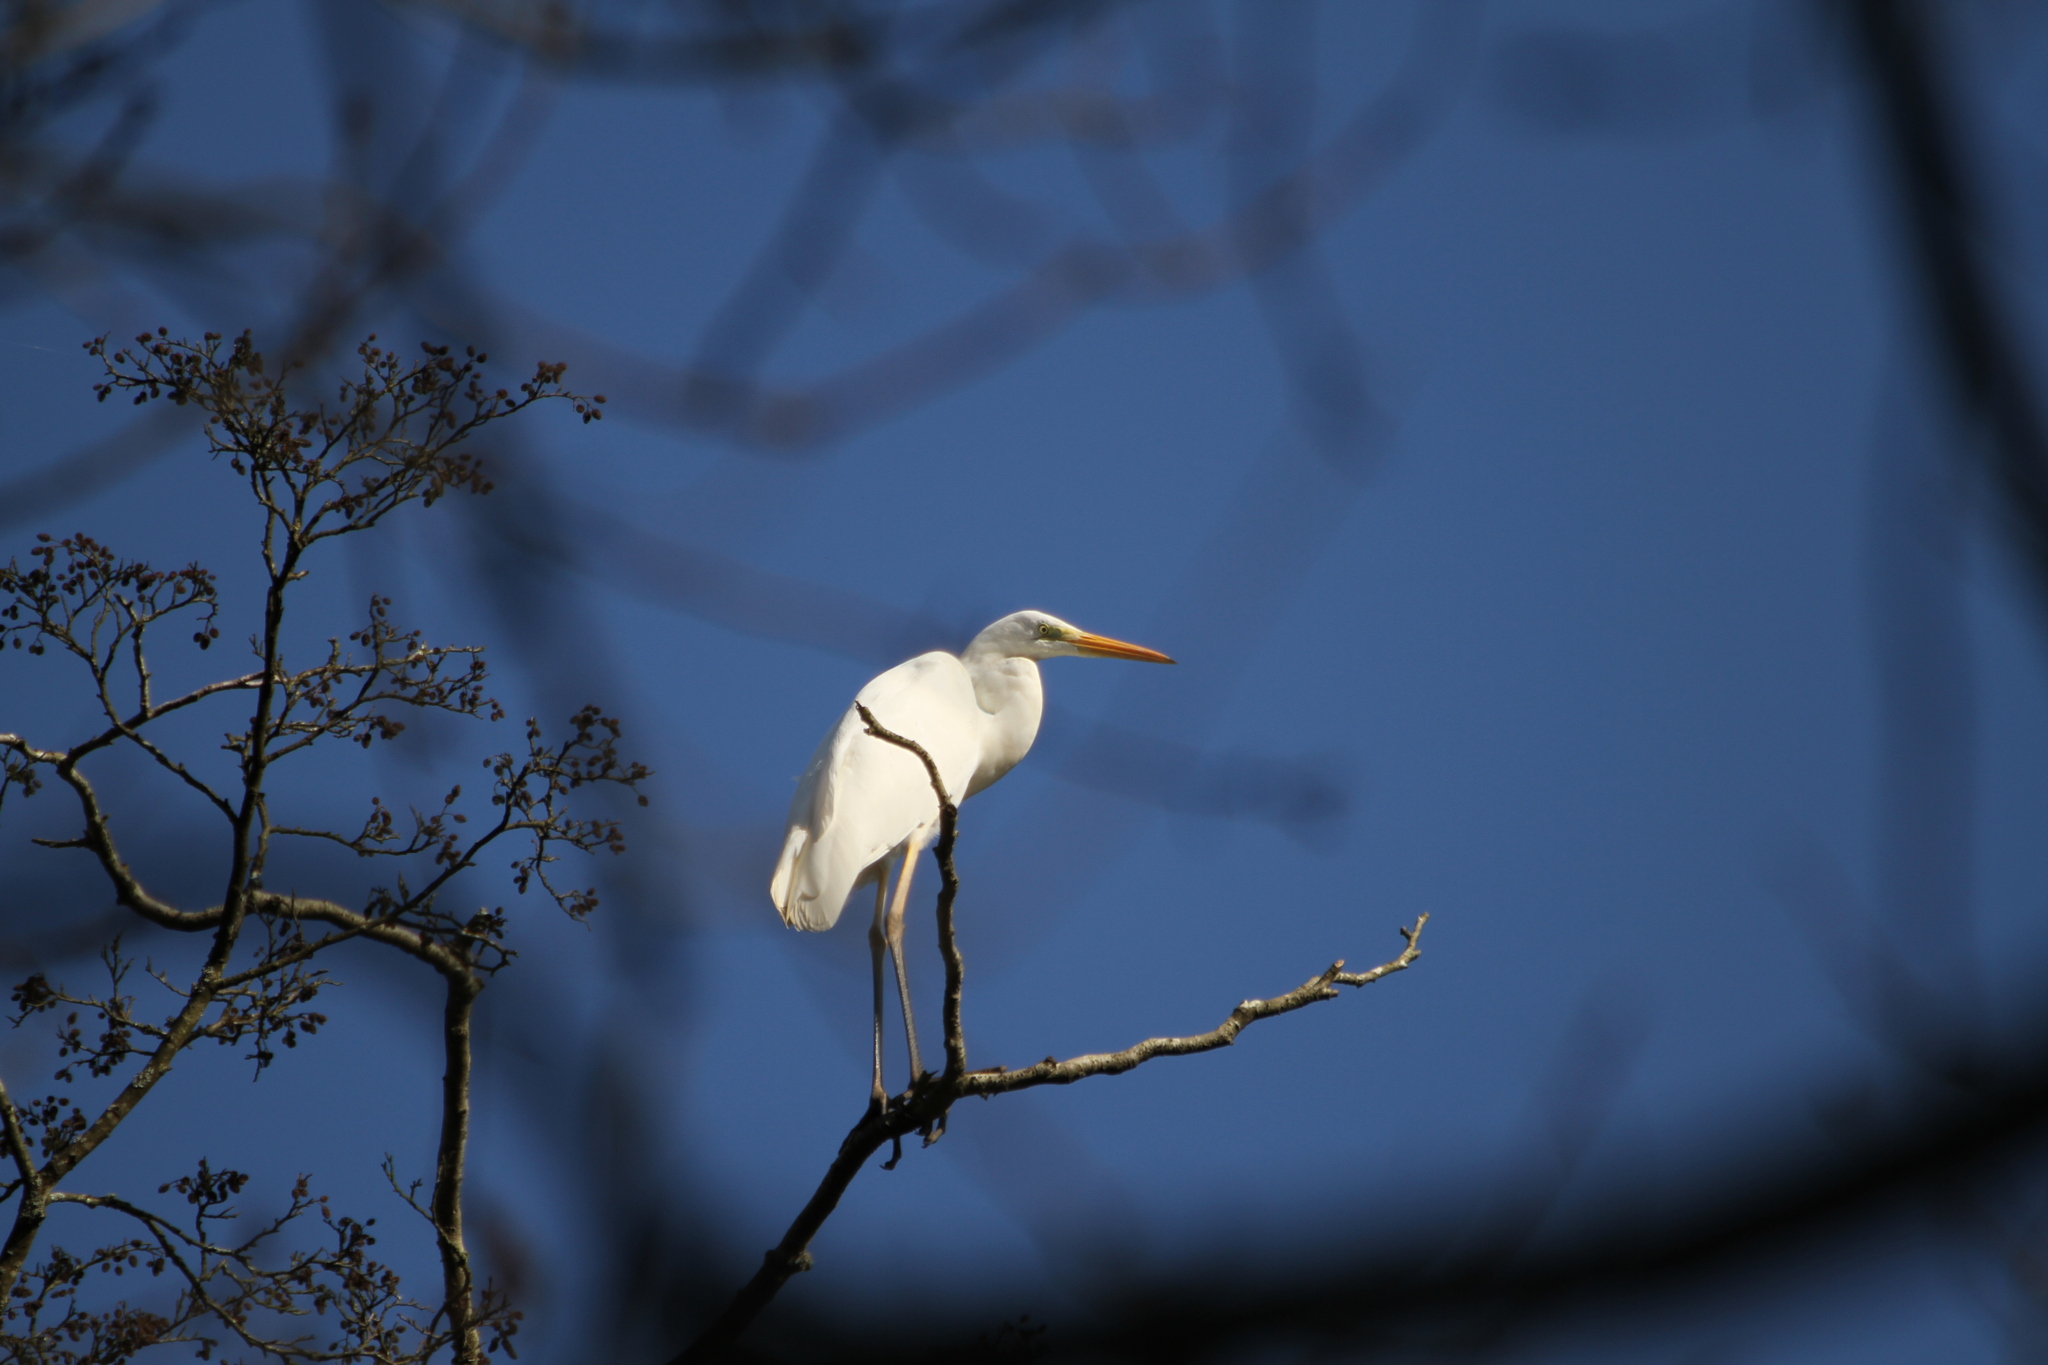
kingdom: Animalia
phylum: Chordata
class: Aves
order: Pelecaniformes
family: Ardeidae
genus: Ardea
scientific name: Ardea alba
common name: Great egret
